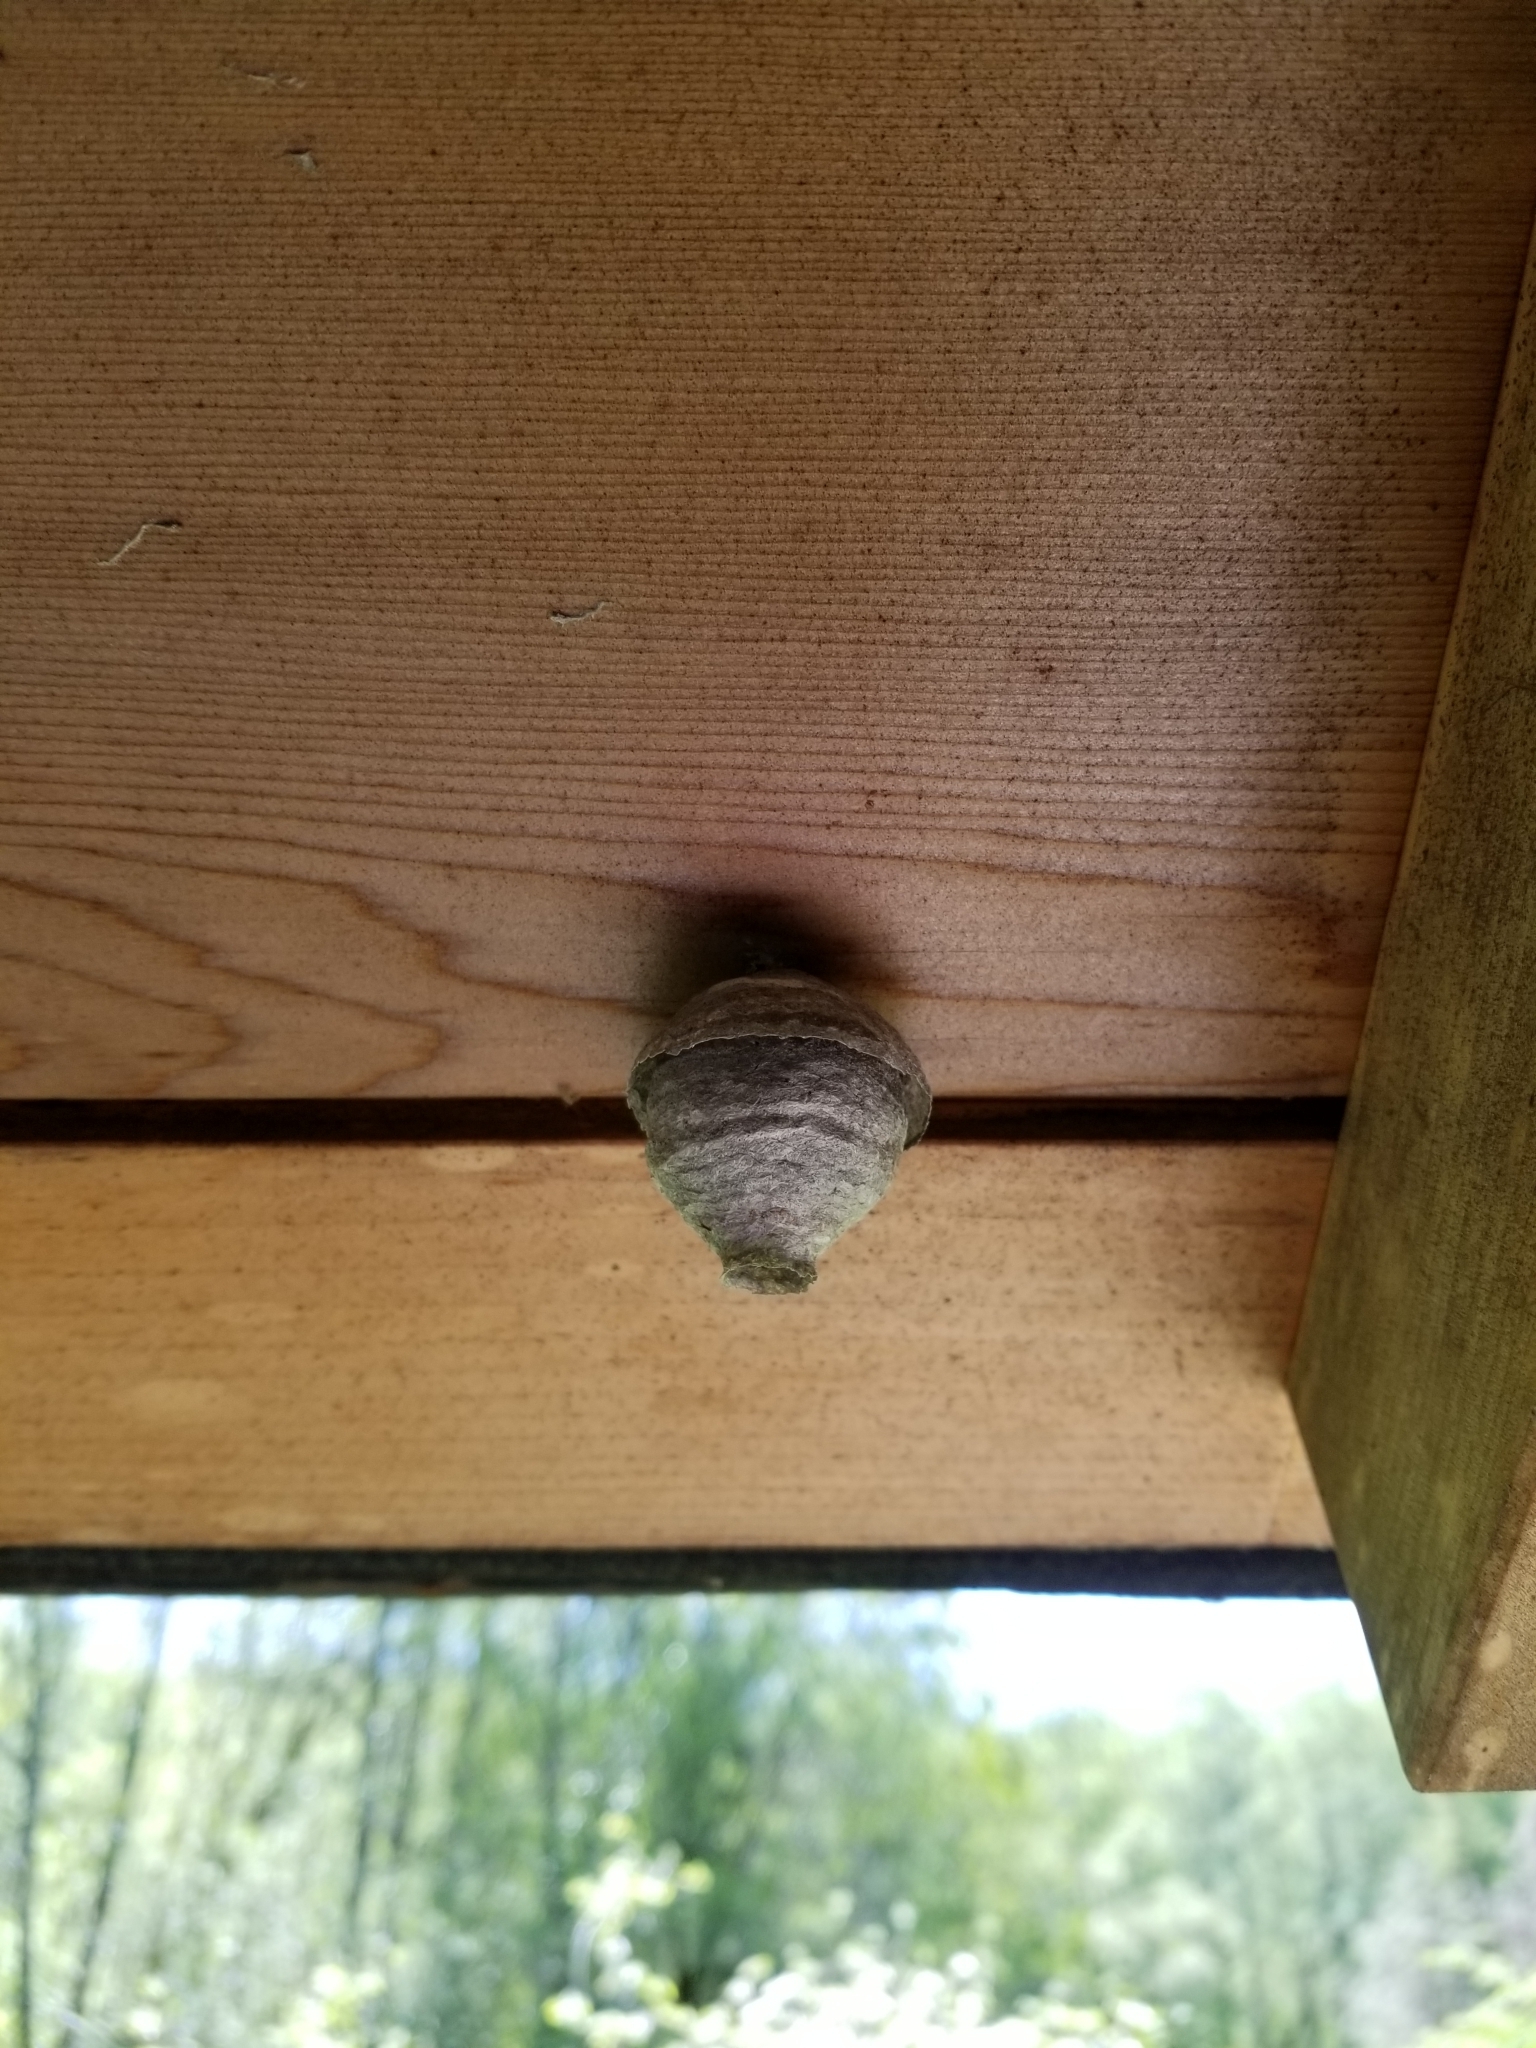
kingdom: Animalia
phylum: Arthropoda
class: Insecta
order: Hymenoptera
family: Vespidae
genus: Dolichovespula
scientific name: Dolichovespula
